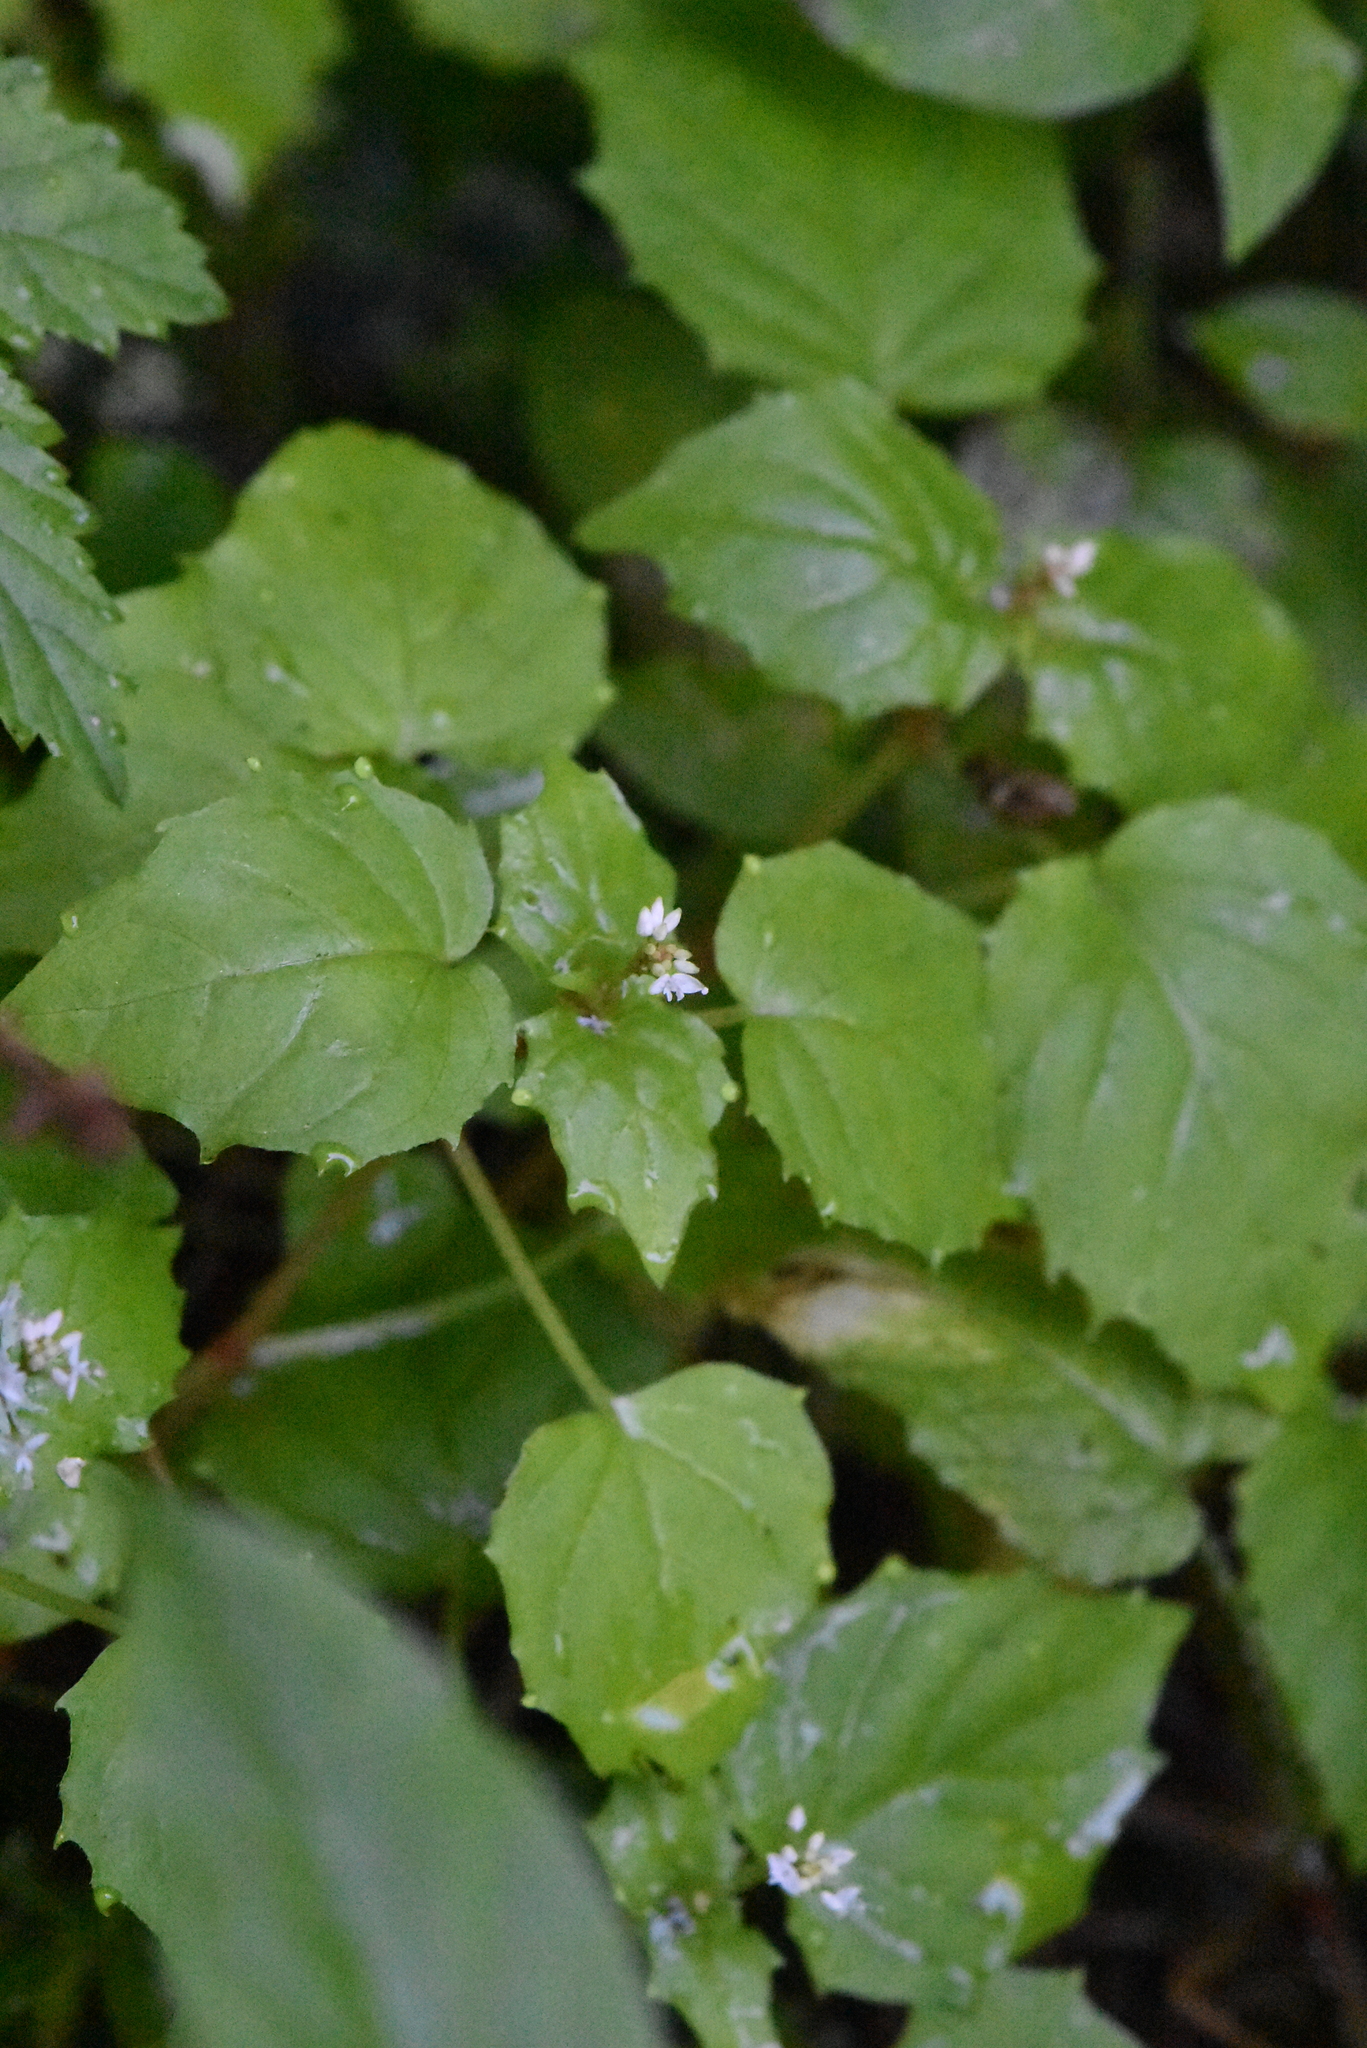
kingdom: Plantae
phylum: Tracheophyta
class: Magnoliopsida
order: Myrtales
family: Onagraceae
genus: Circaea
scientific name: Circaea alpina
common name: Alpine enchanter's-nightshade
